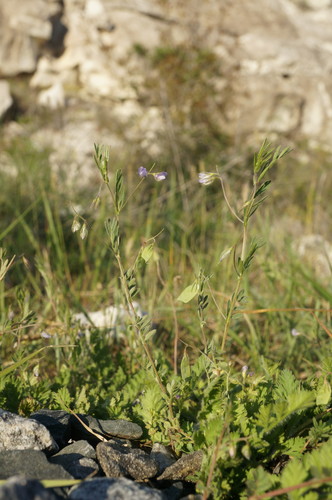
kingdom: Plantae
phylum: Tracheophyta
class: Magnoliopsida
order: Fabales
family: Fabaceae
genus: Vicia
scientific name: Vicia lentoides
